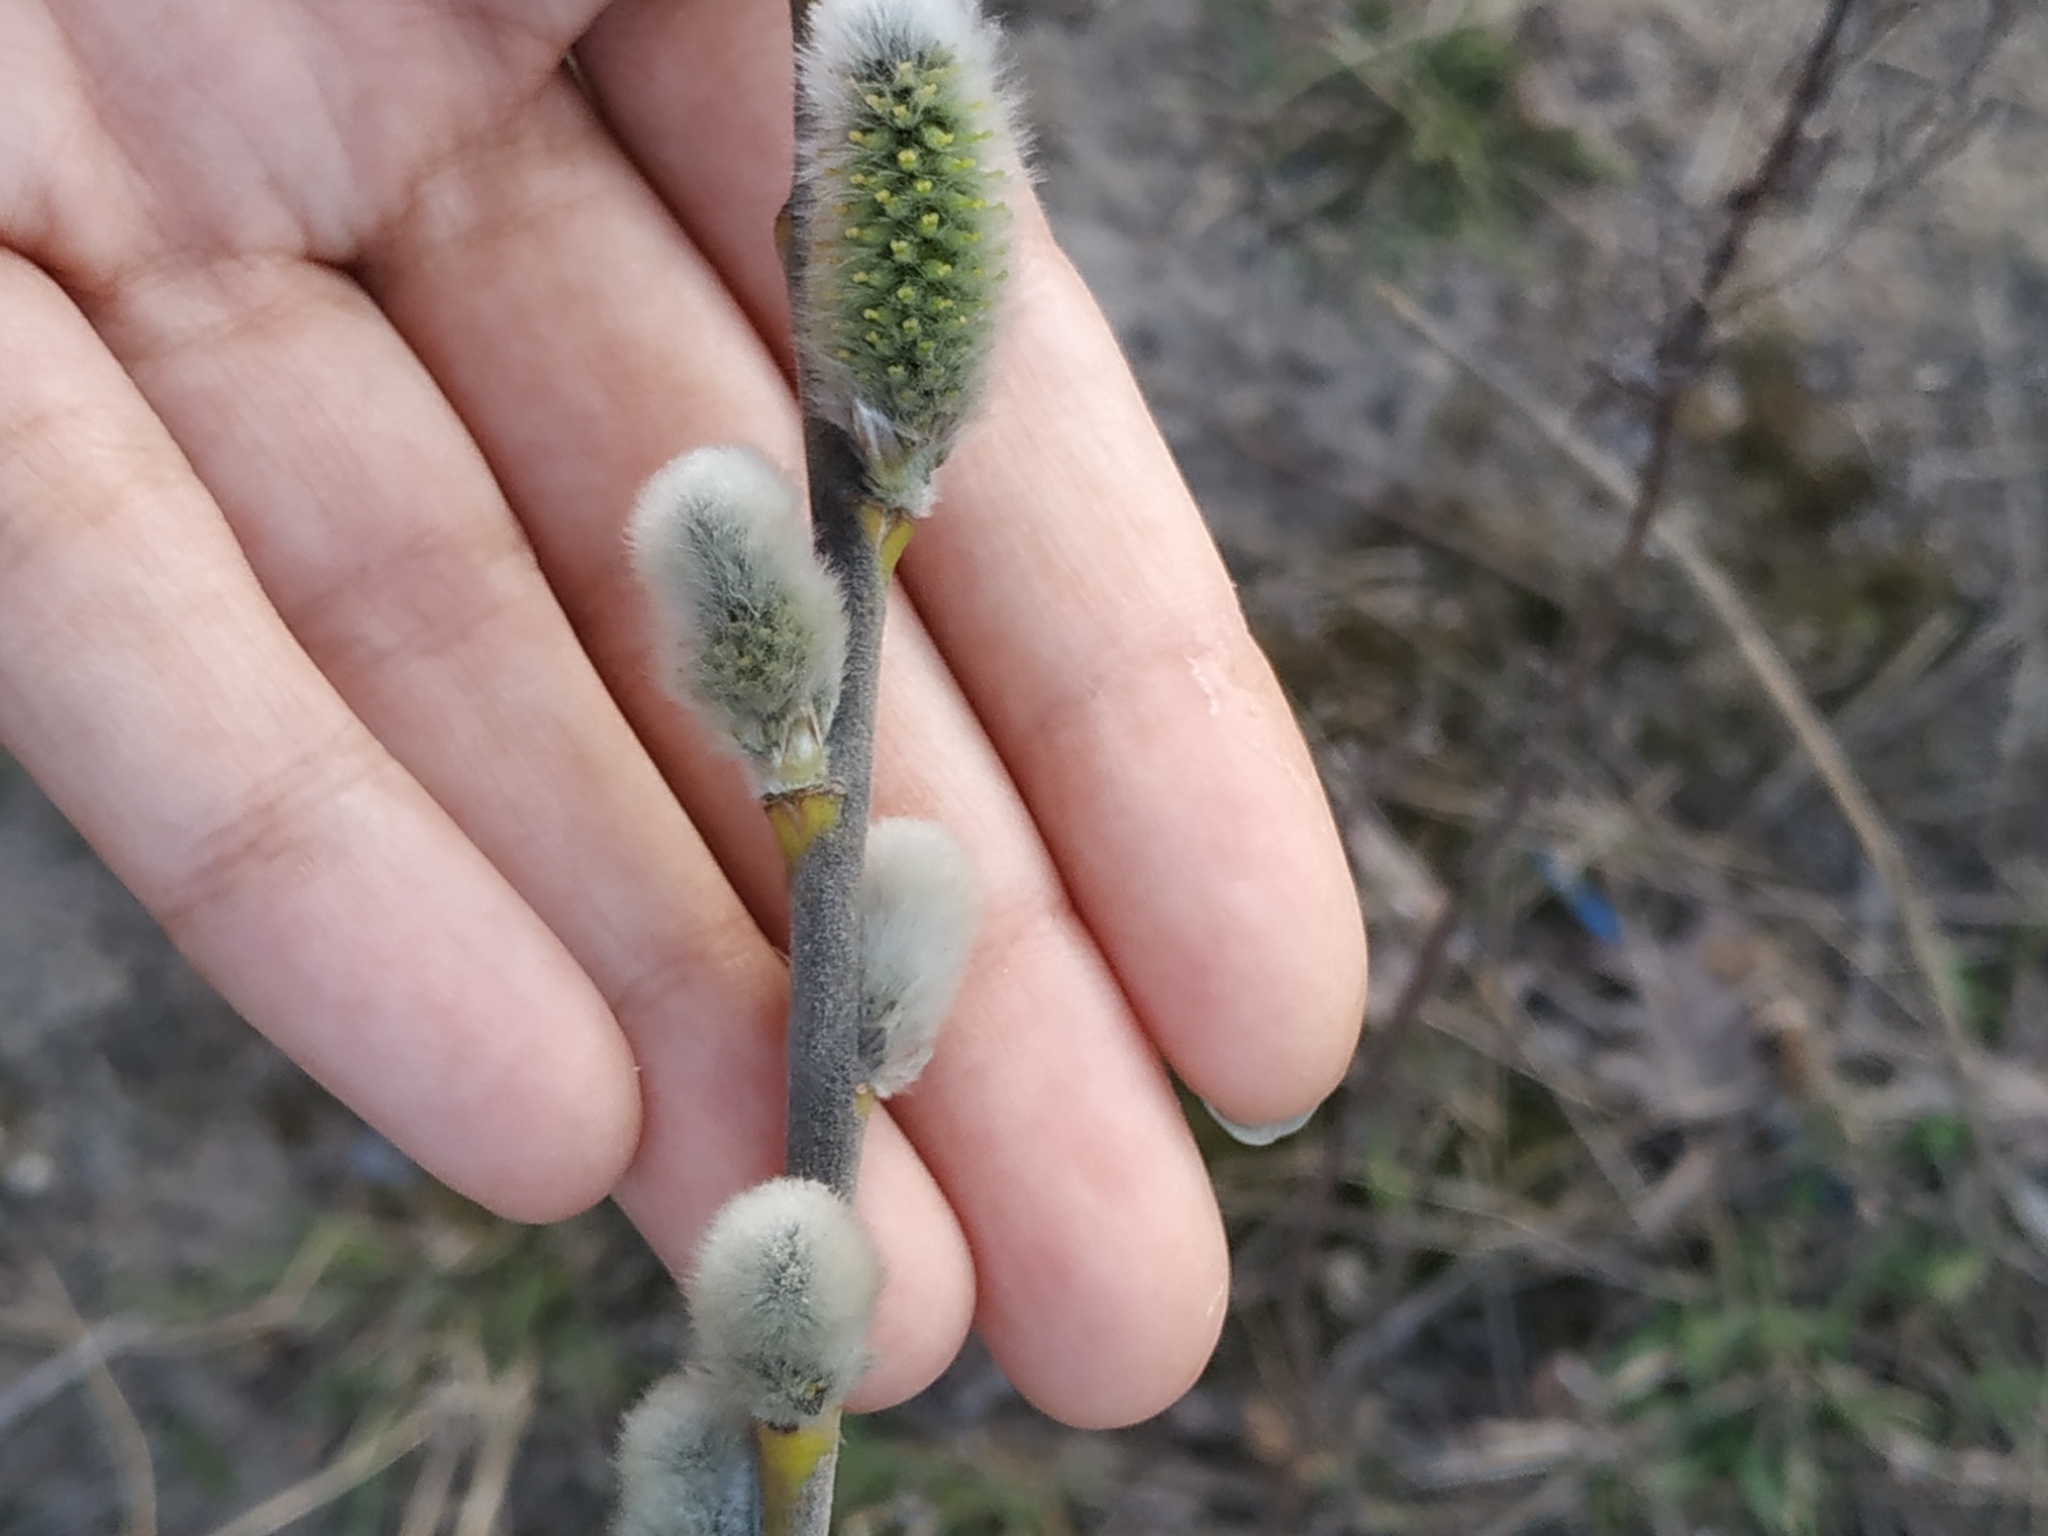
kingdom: Plantae
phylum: Tracheophyta
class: Magnoliopsida
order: Malpighiales
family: Salicaceae
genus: Salix
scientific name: Salix caprea
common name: Goat willow
